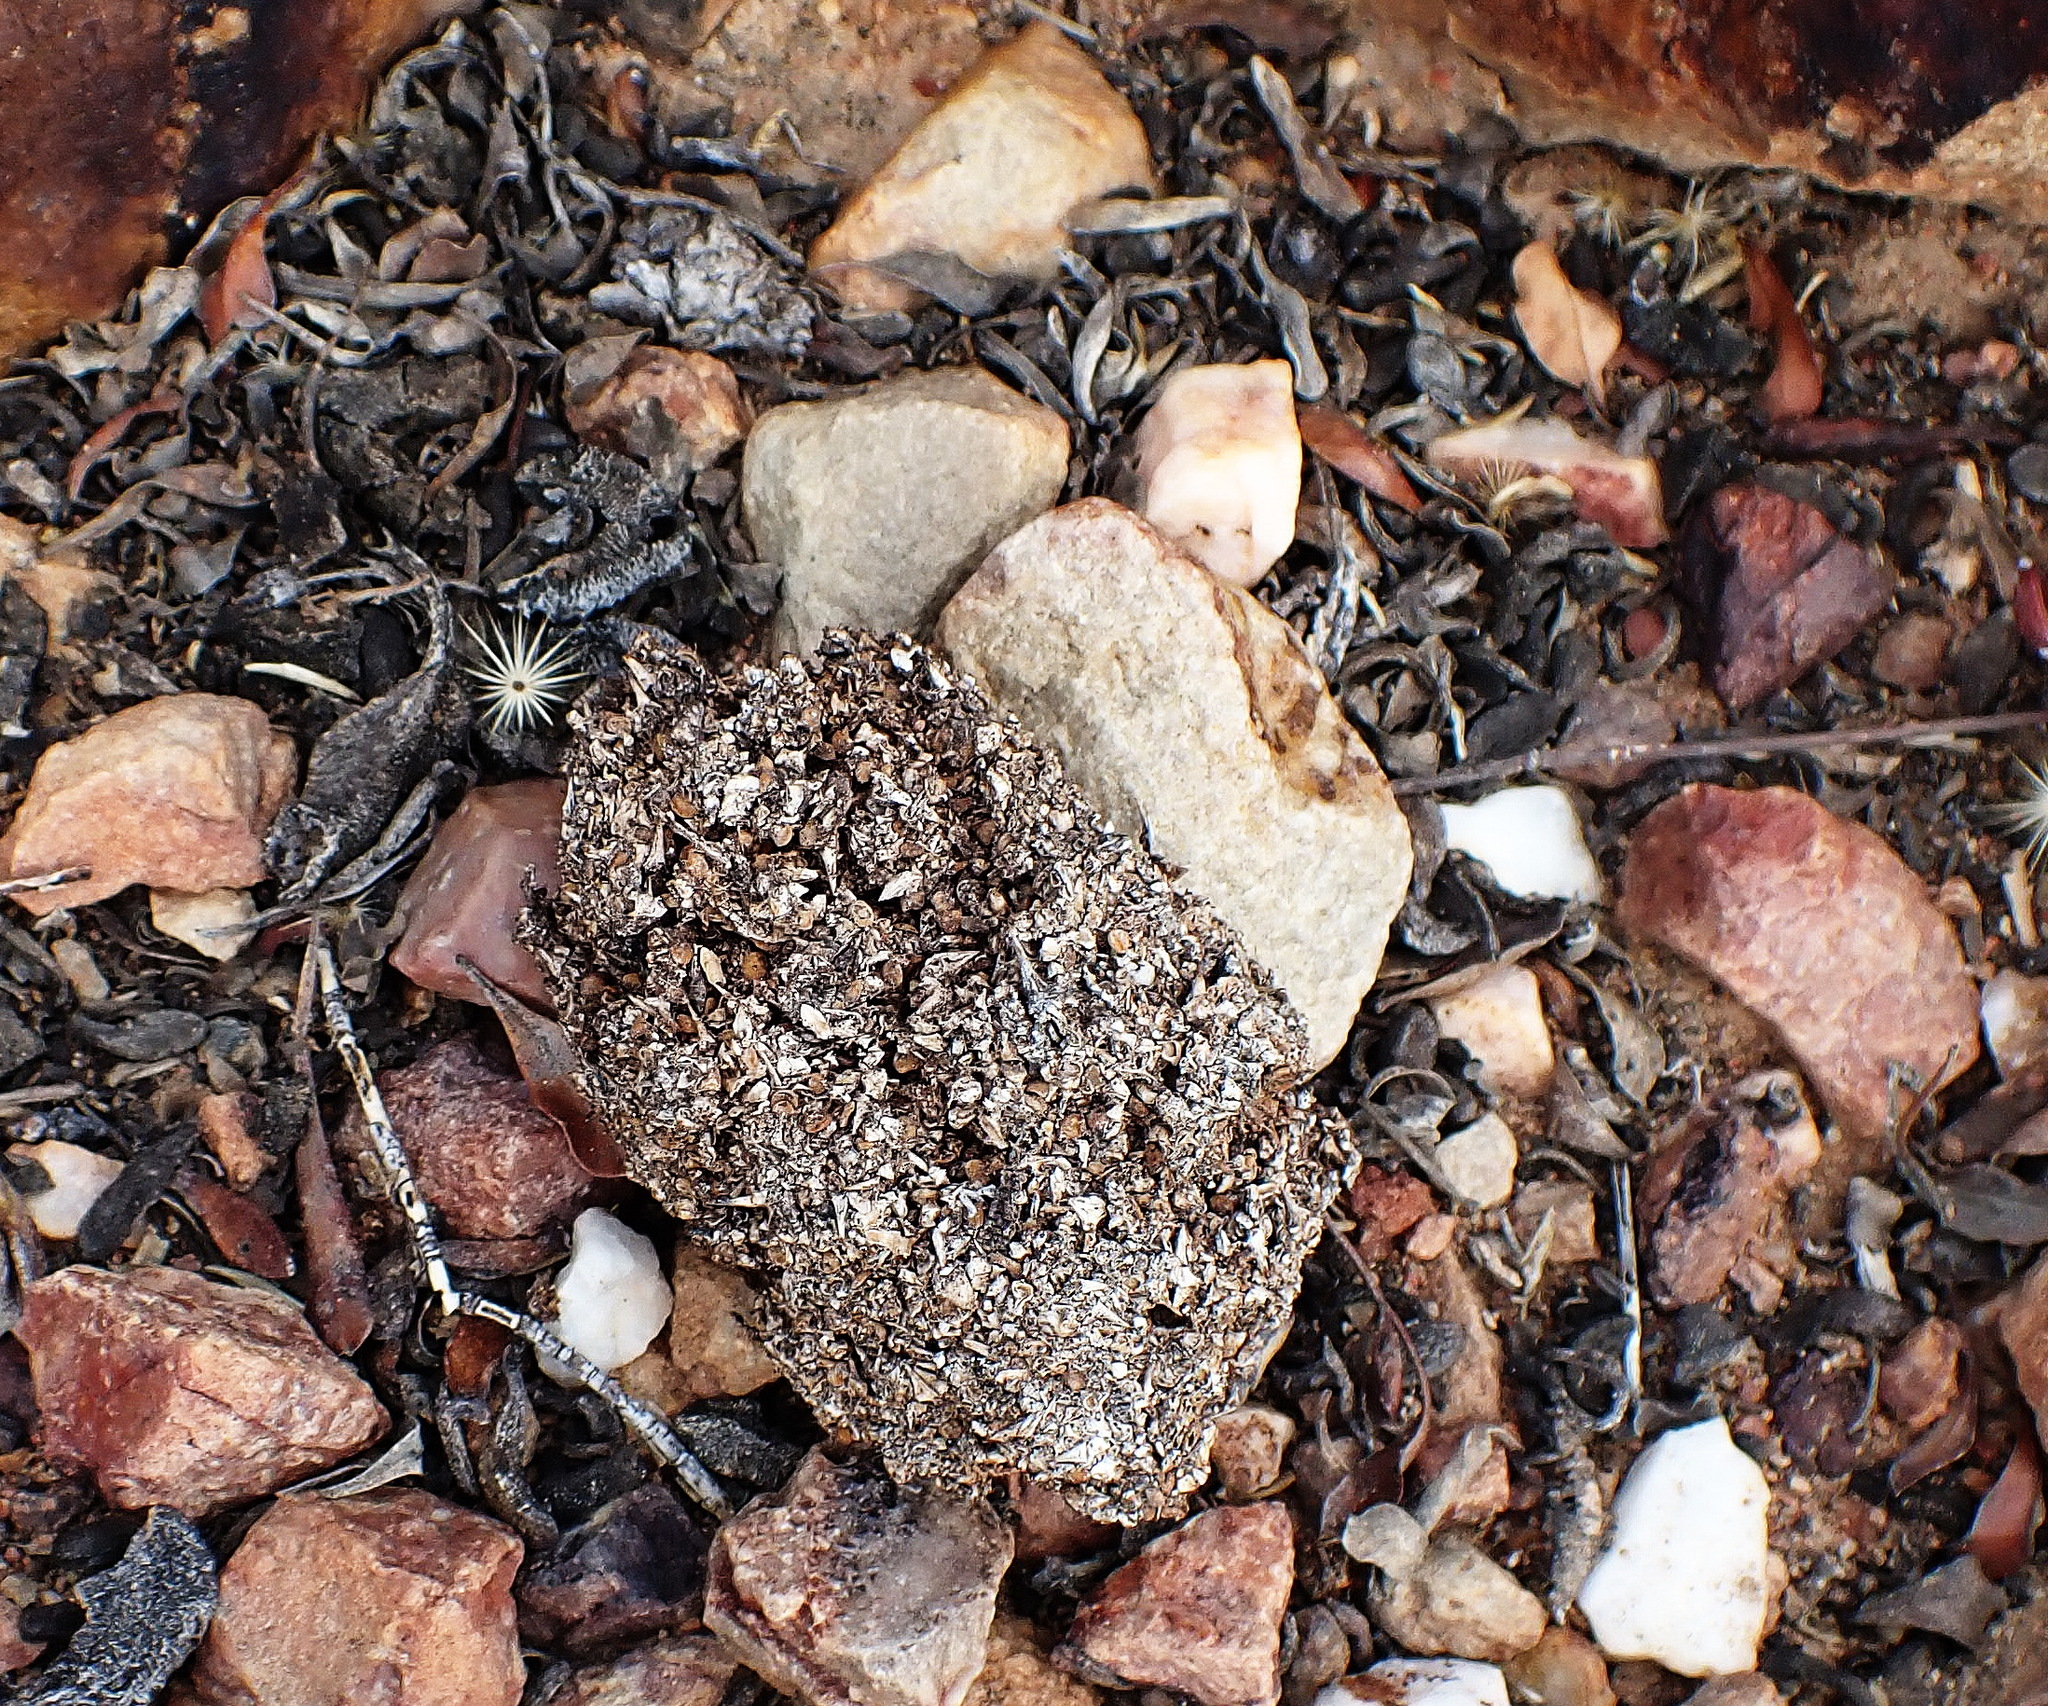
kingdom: Animalia
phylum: Chordata
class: Mammalia
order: Primates
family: Cercopithecidae
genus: Papio
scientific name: Papio ursinus
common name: Chacma baboon
